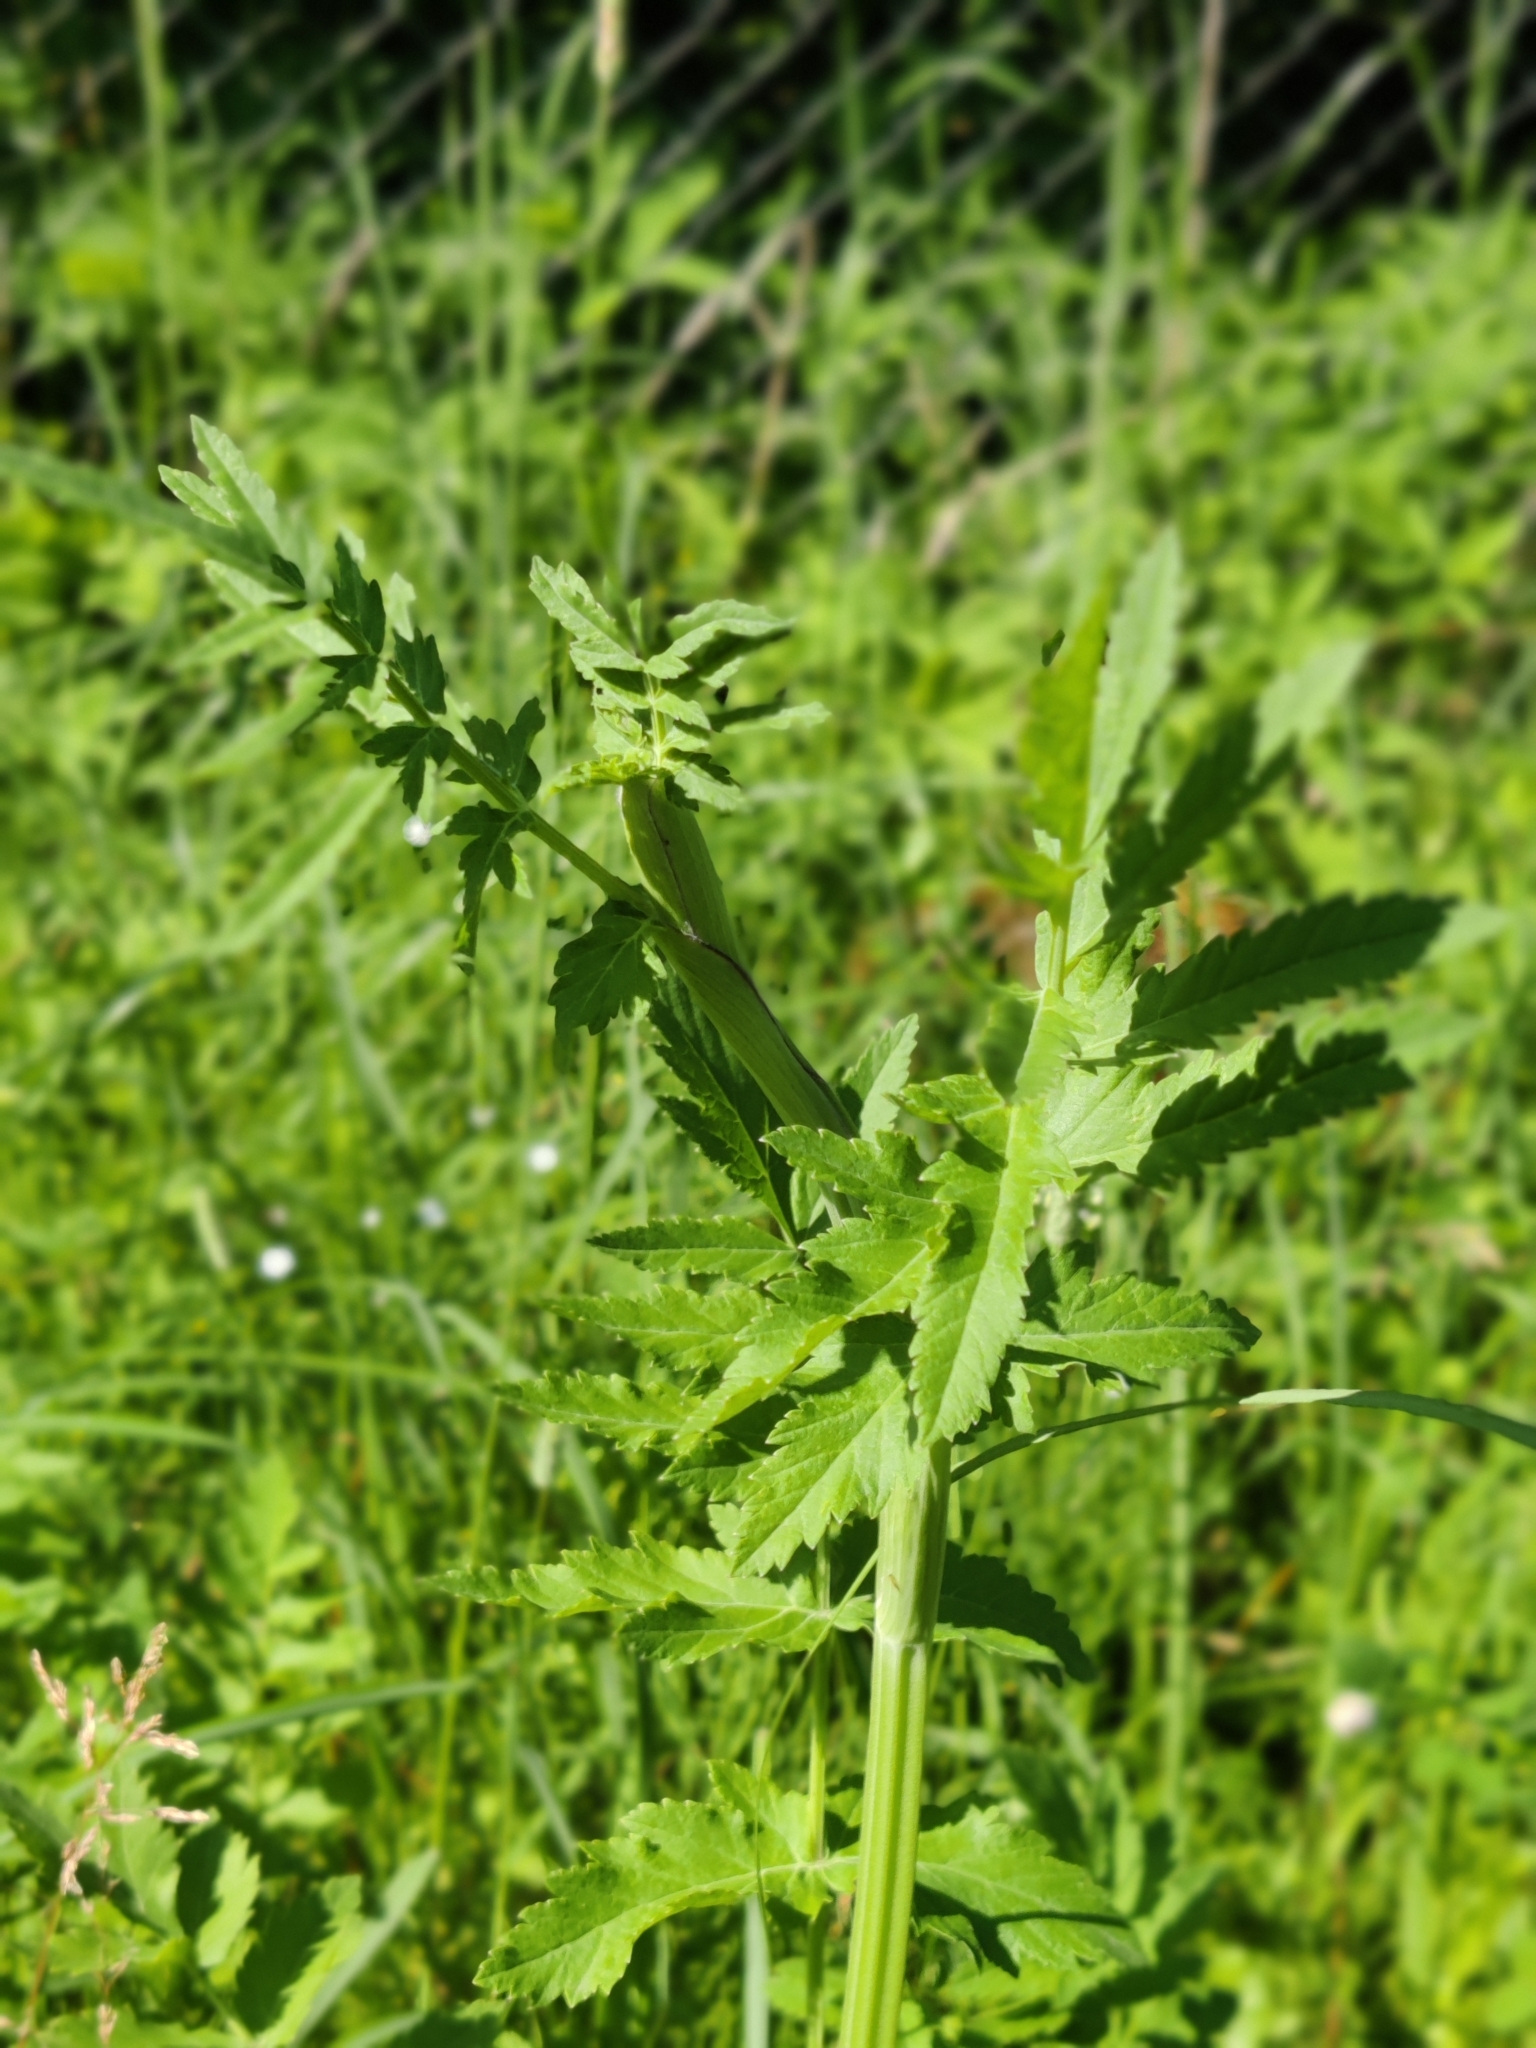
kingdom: Plantae
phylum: Tracheophyta
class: Magnoliopsida
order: Apiales
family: Apiaceae
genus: Pastinaca
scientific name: Pastinaca sativa
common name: Wild parsnip
